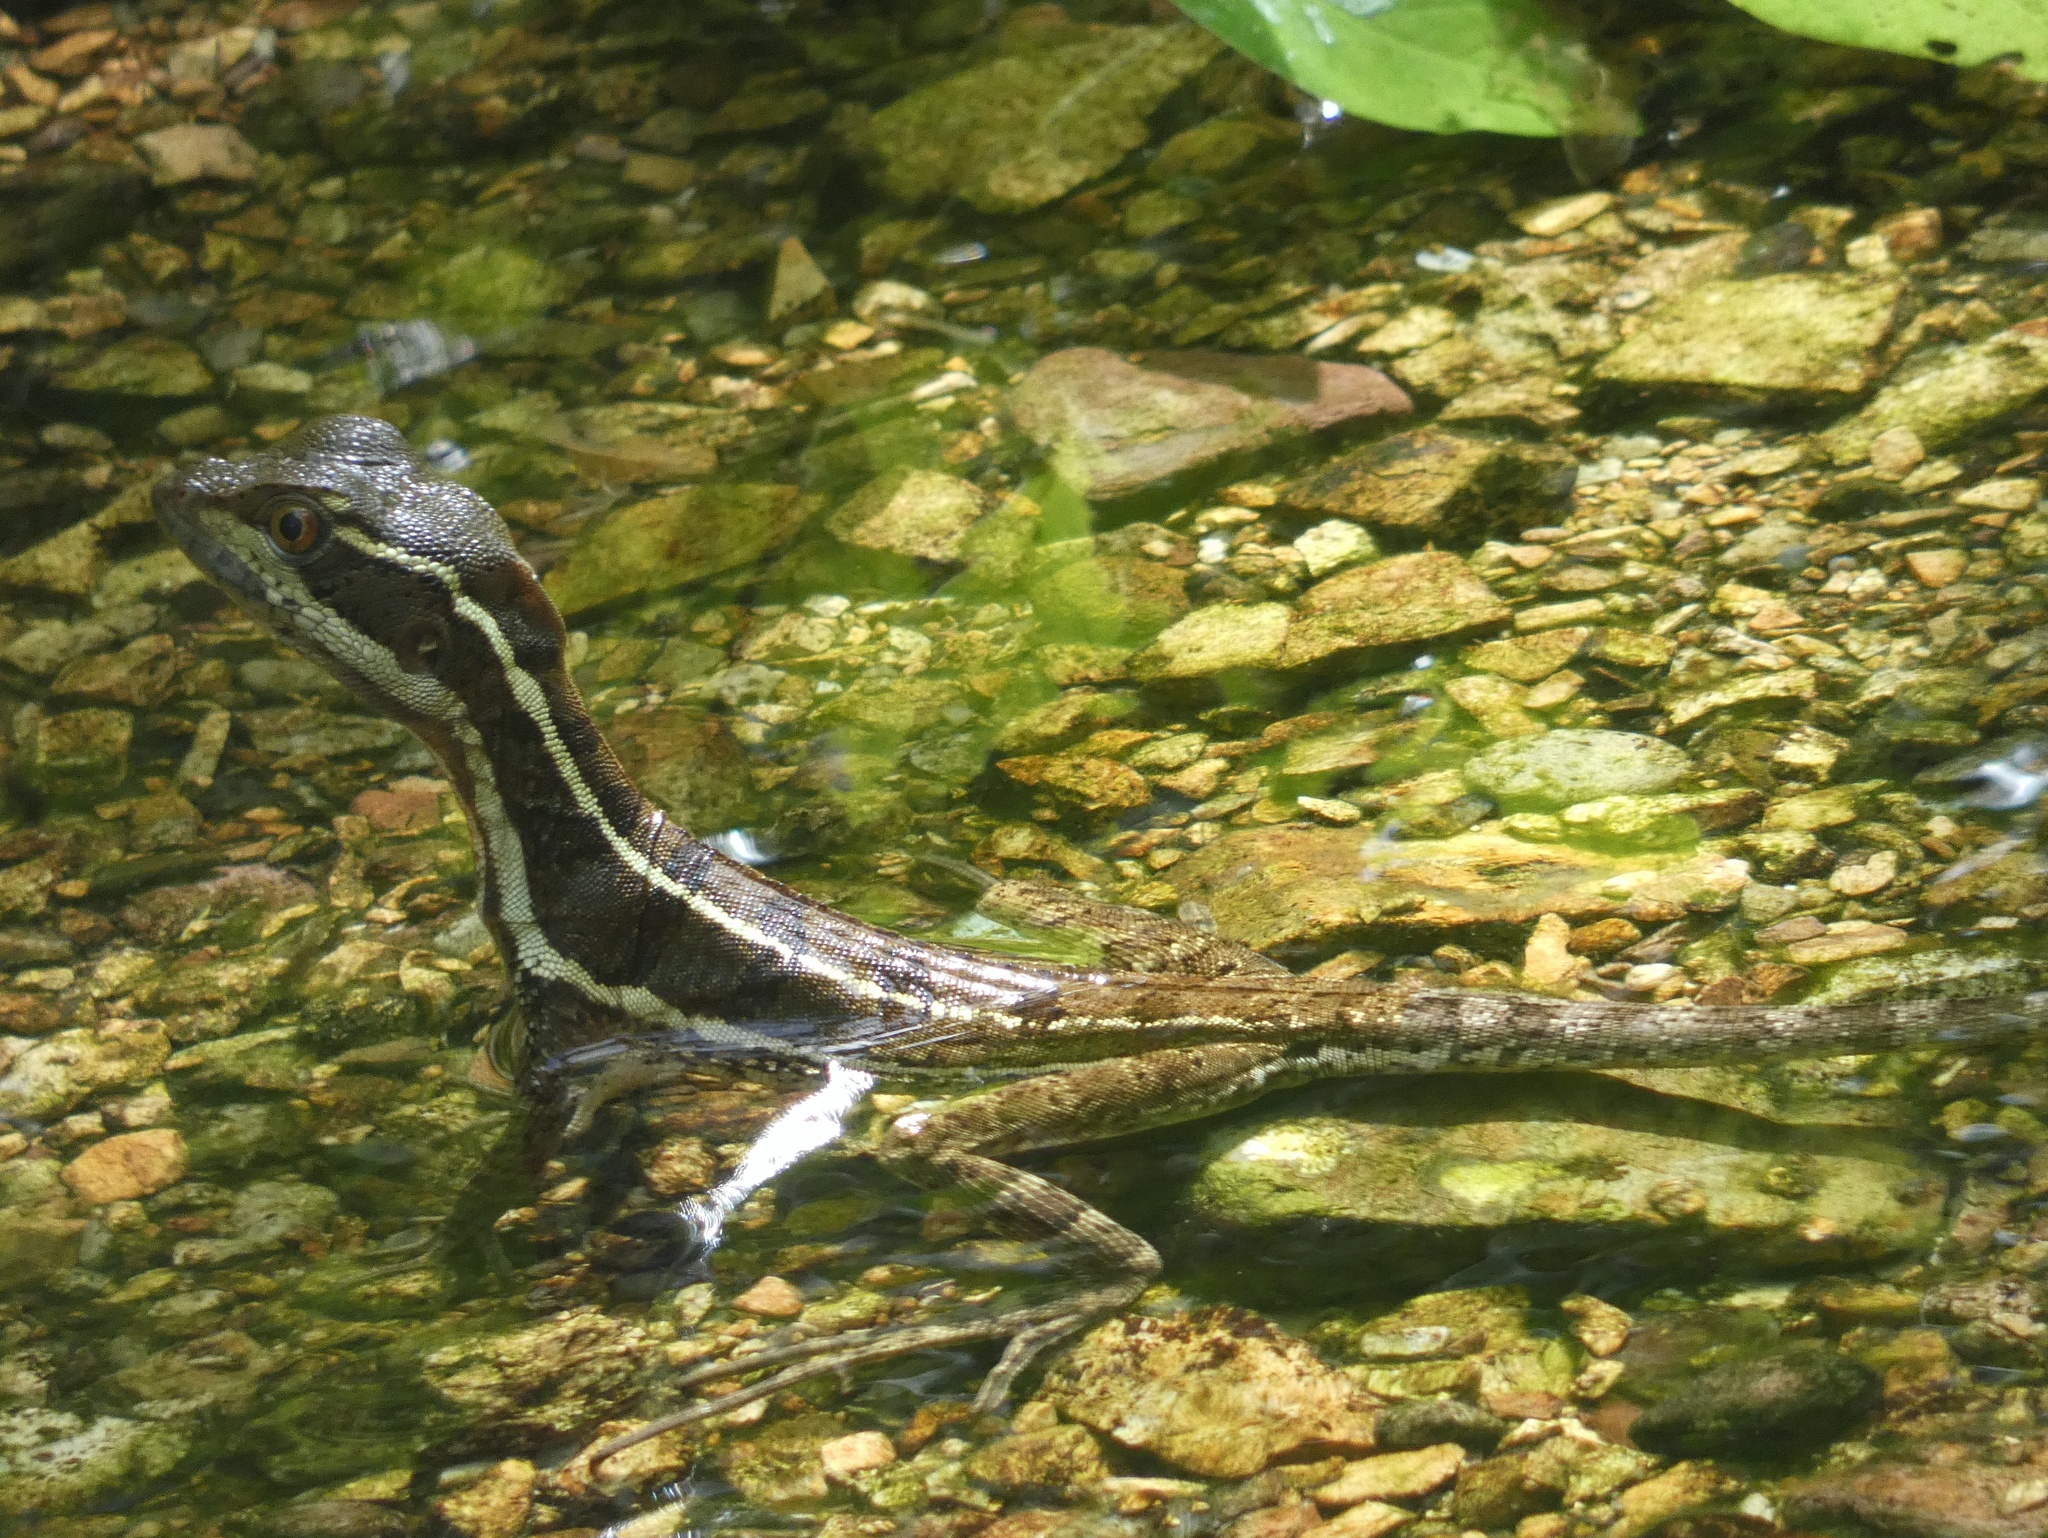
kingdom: Animalia
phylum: Chordata
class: Squamata
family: Corytophanidae
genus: Basiliscus
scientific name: Basiliscus basiliscus
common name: Common basilisk
